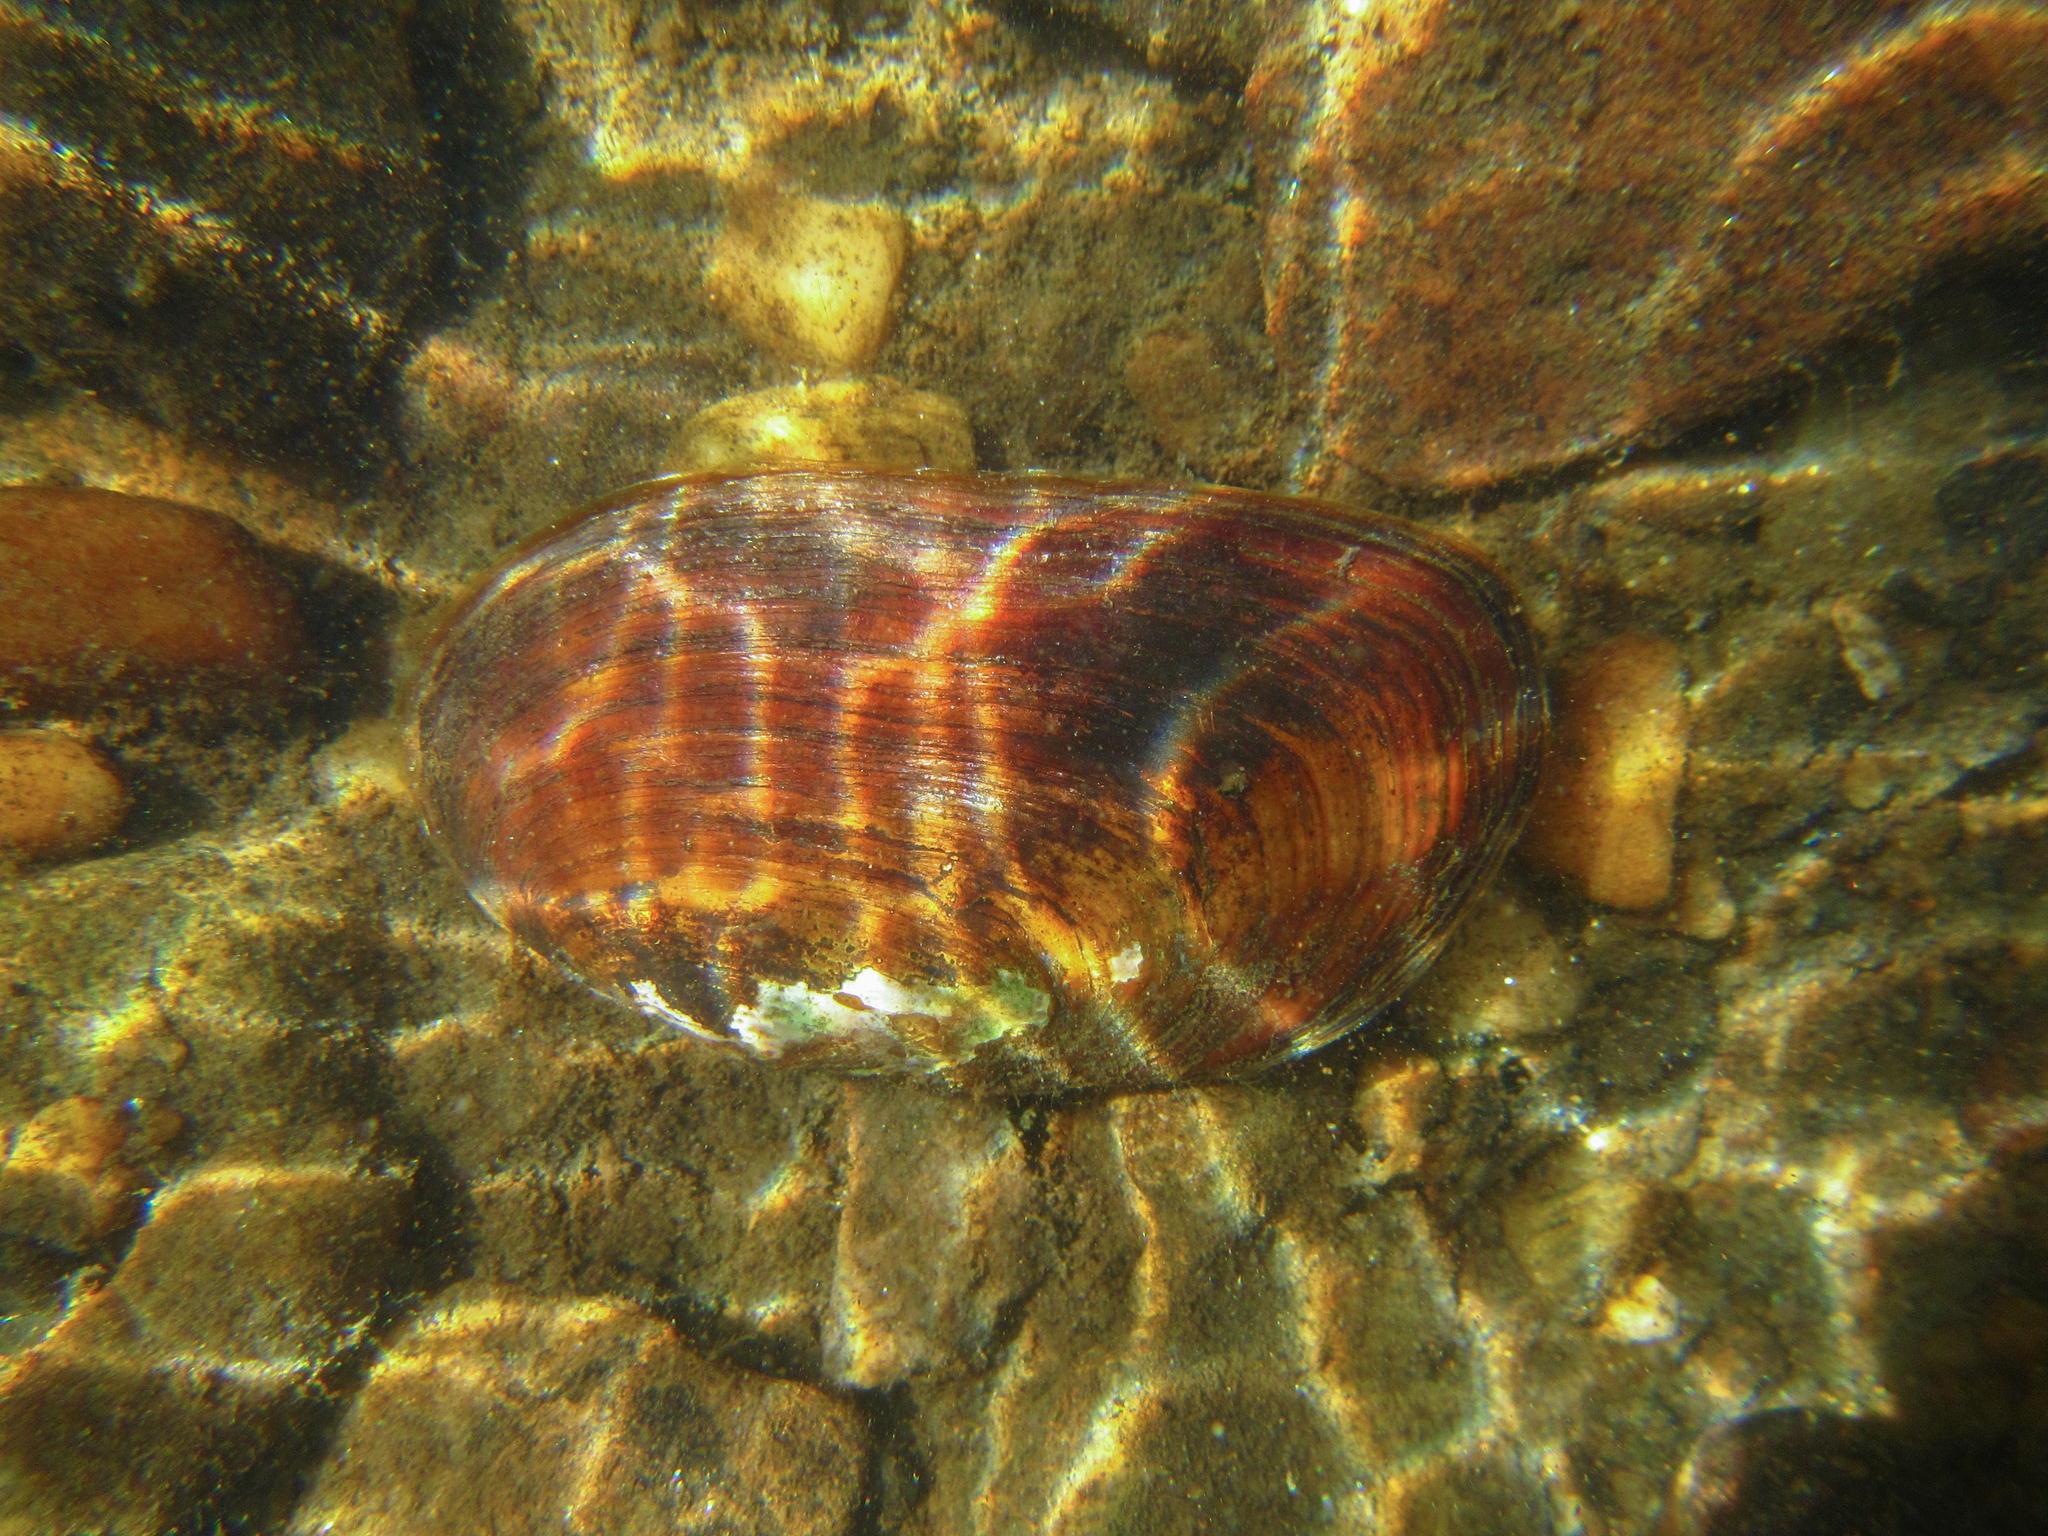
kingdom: Animalia
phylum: Mollusca
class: Bivalvia
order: Unionida
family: Unionidae
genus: Elliptio
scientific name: Elliptio complanata
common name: Eastern elliptio
